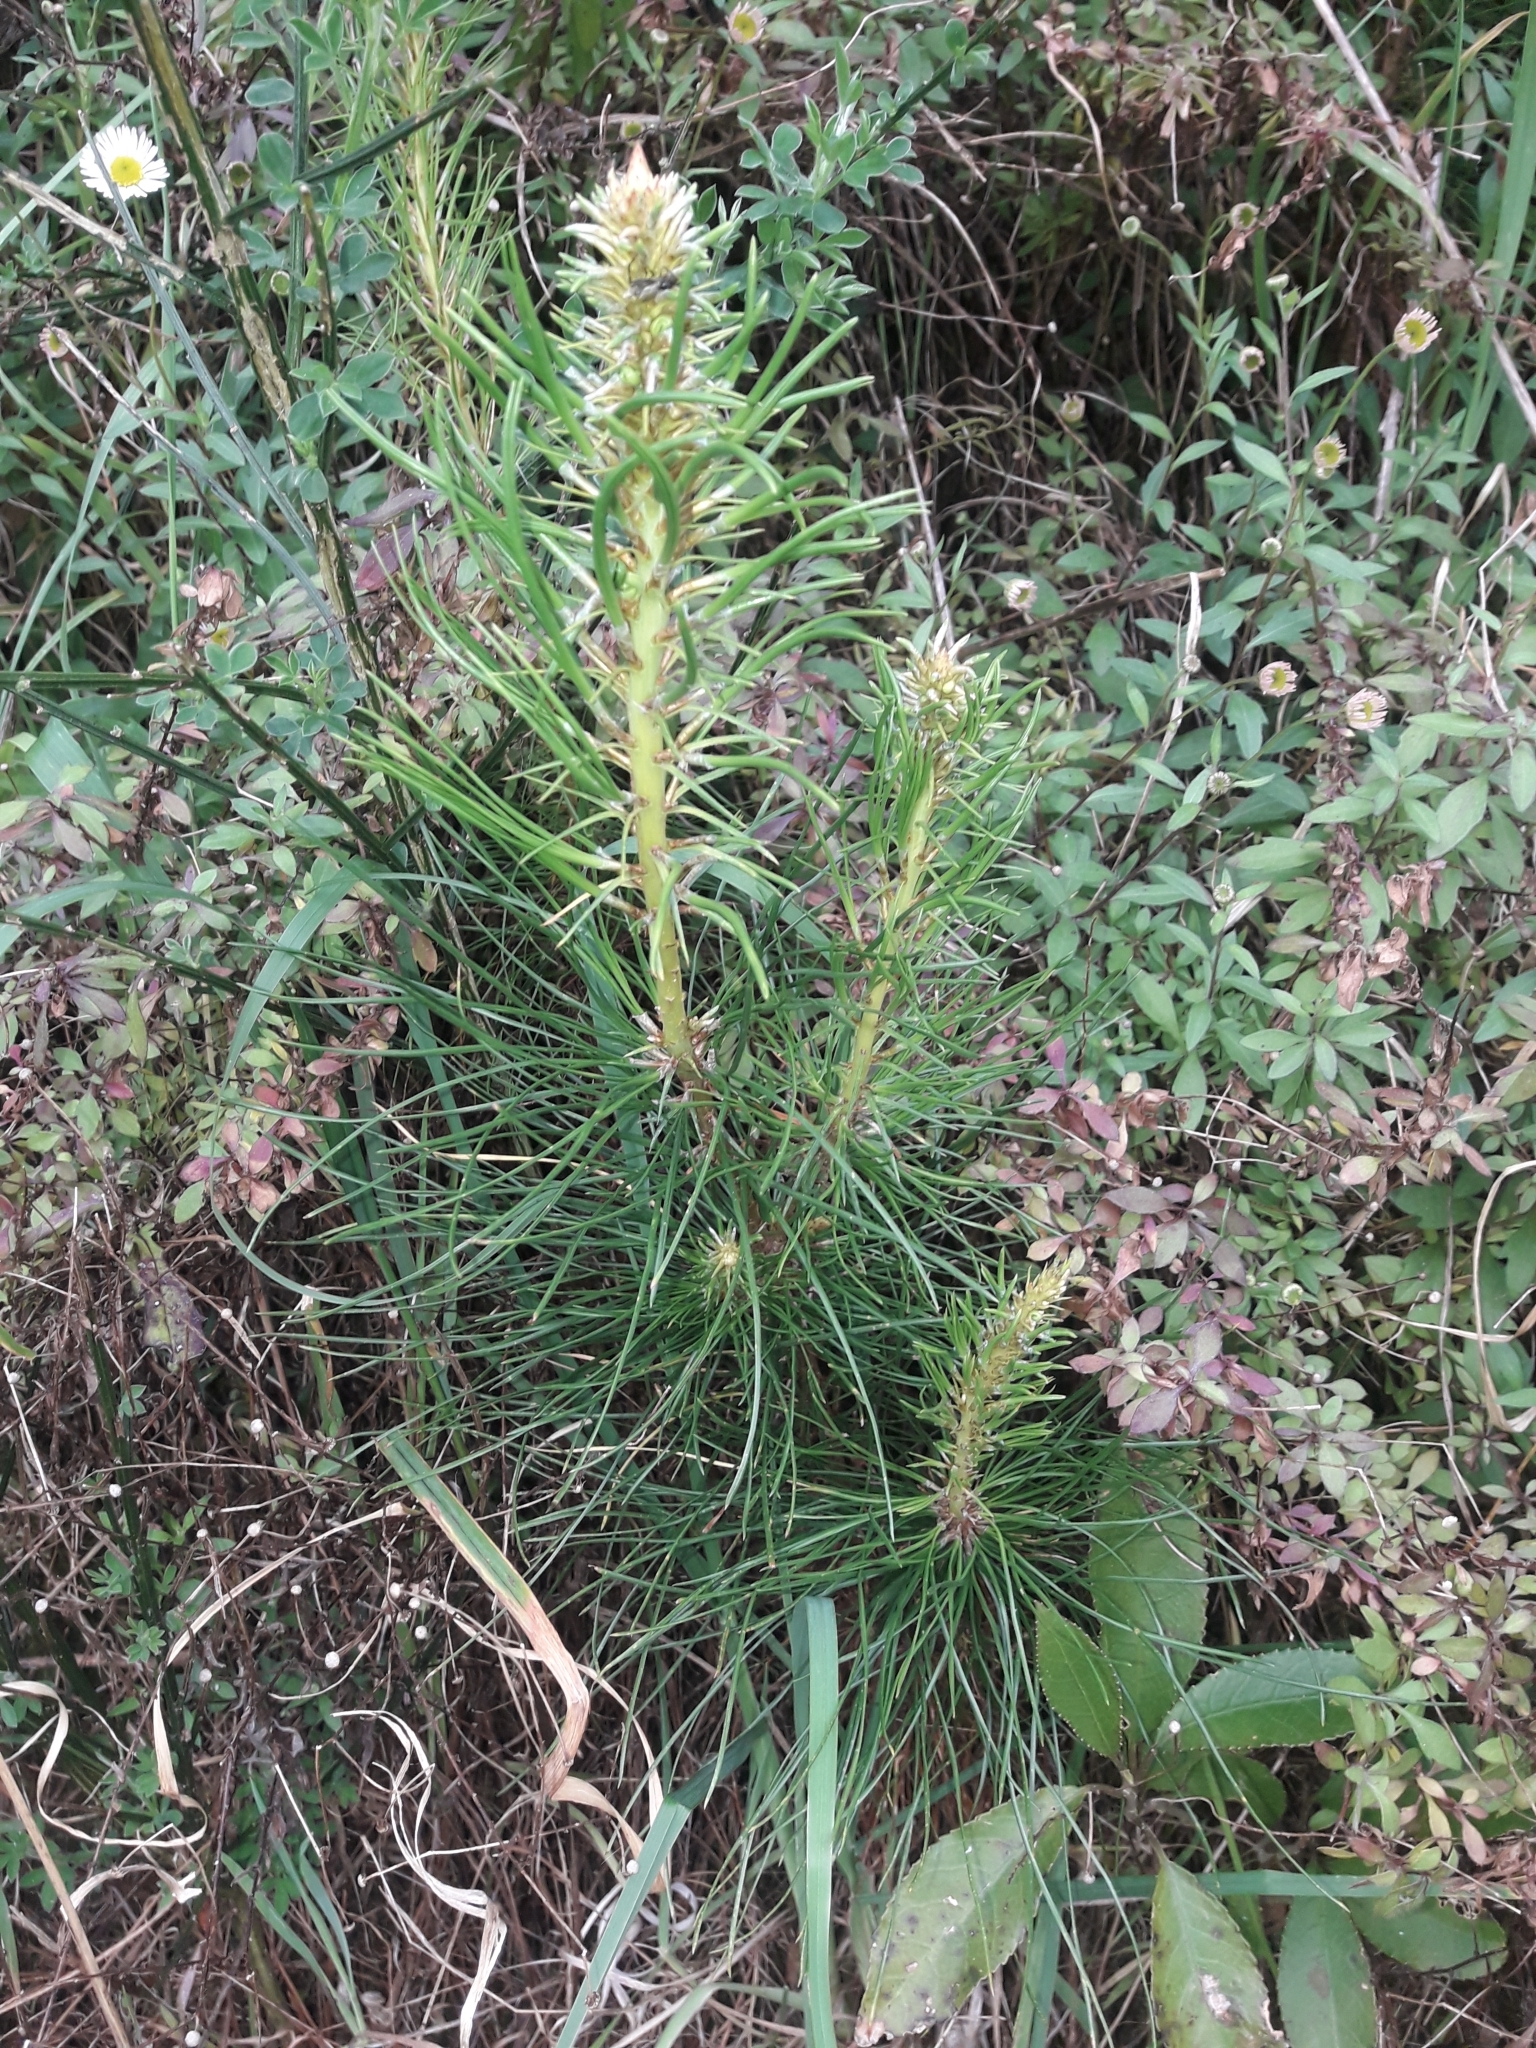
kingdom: Plantae
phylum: Tracheophyta
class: Pinopsida
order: Pinales
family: Pinaceae
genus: Pinus
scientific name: Pinus radiata
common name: Monterey pine
